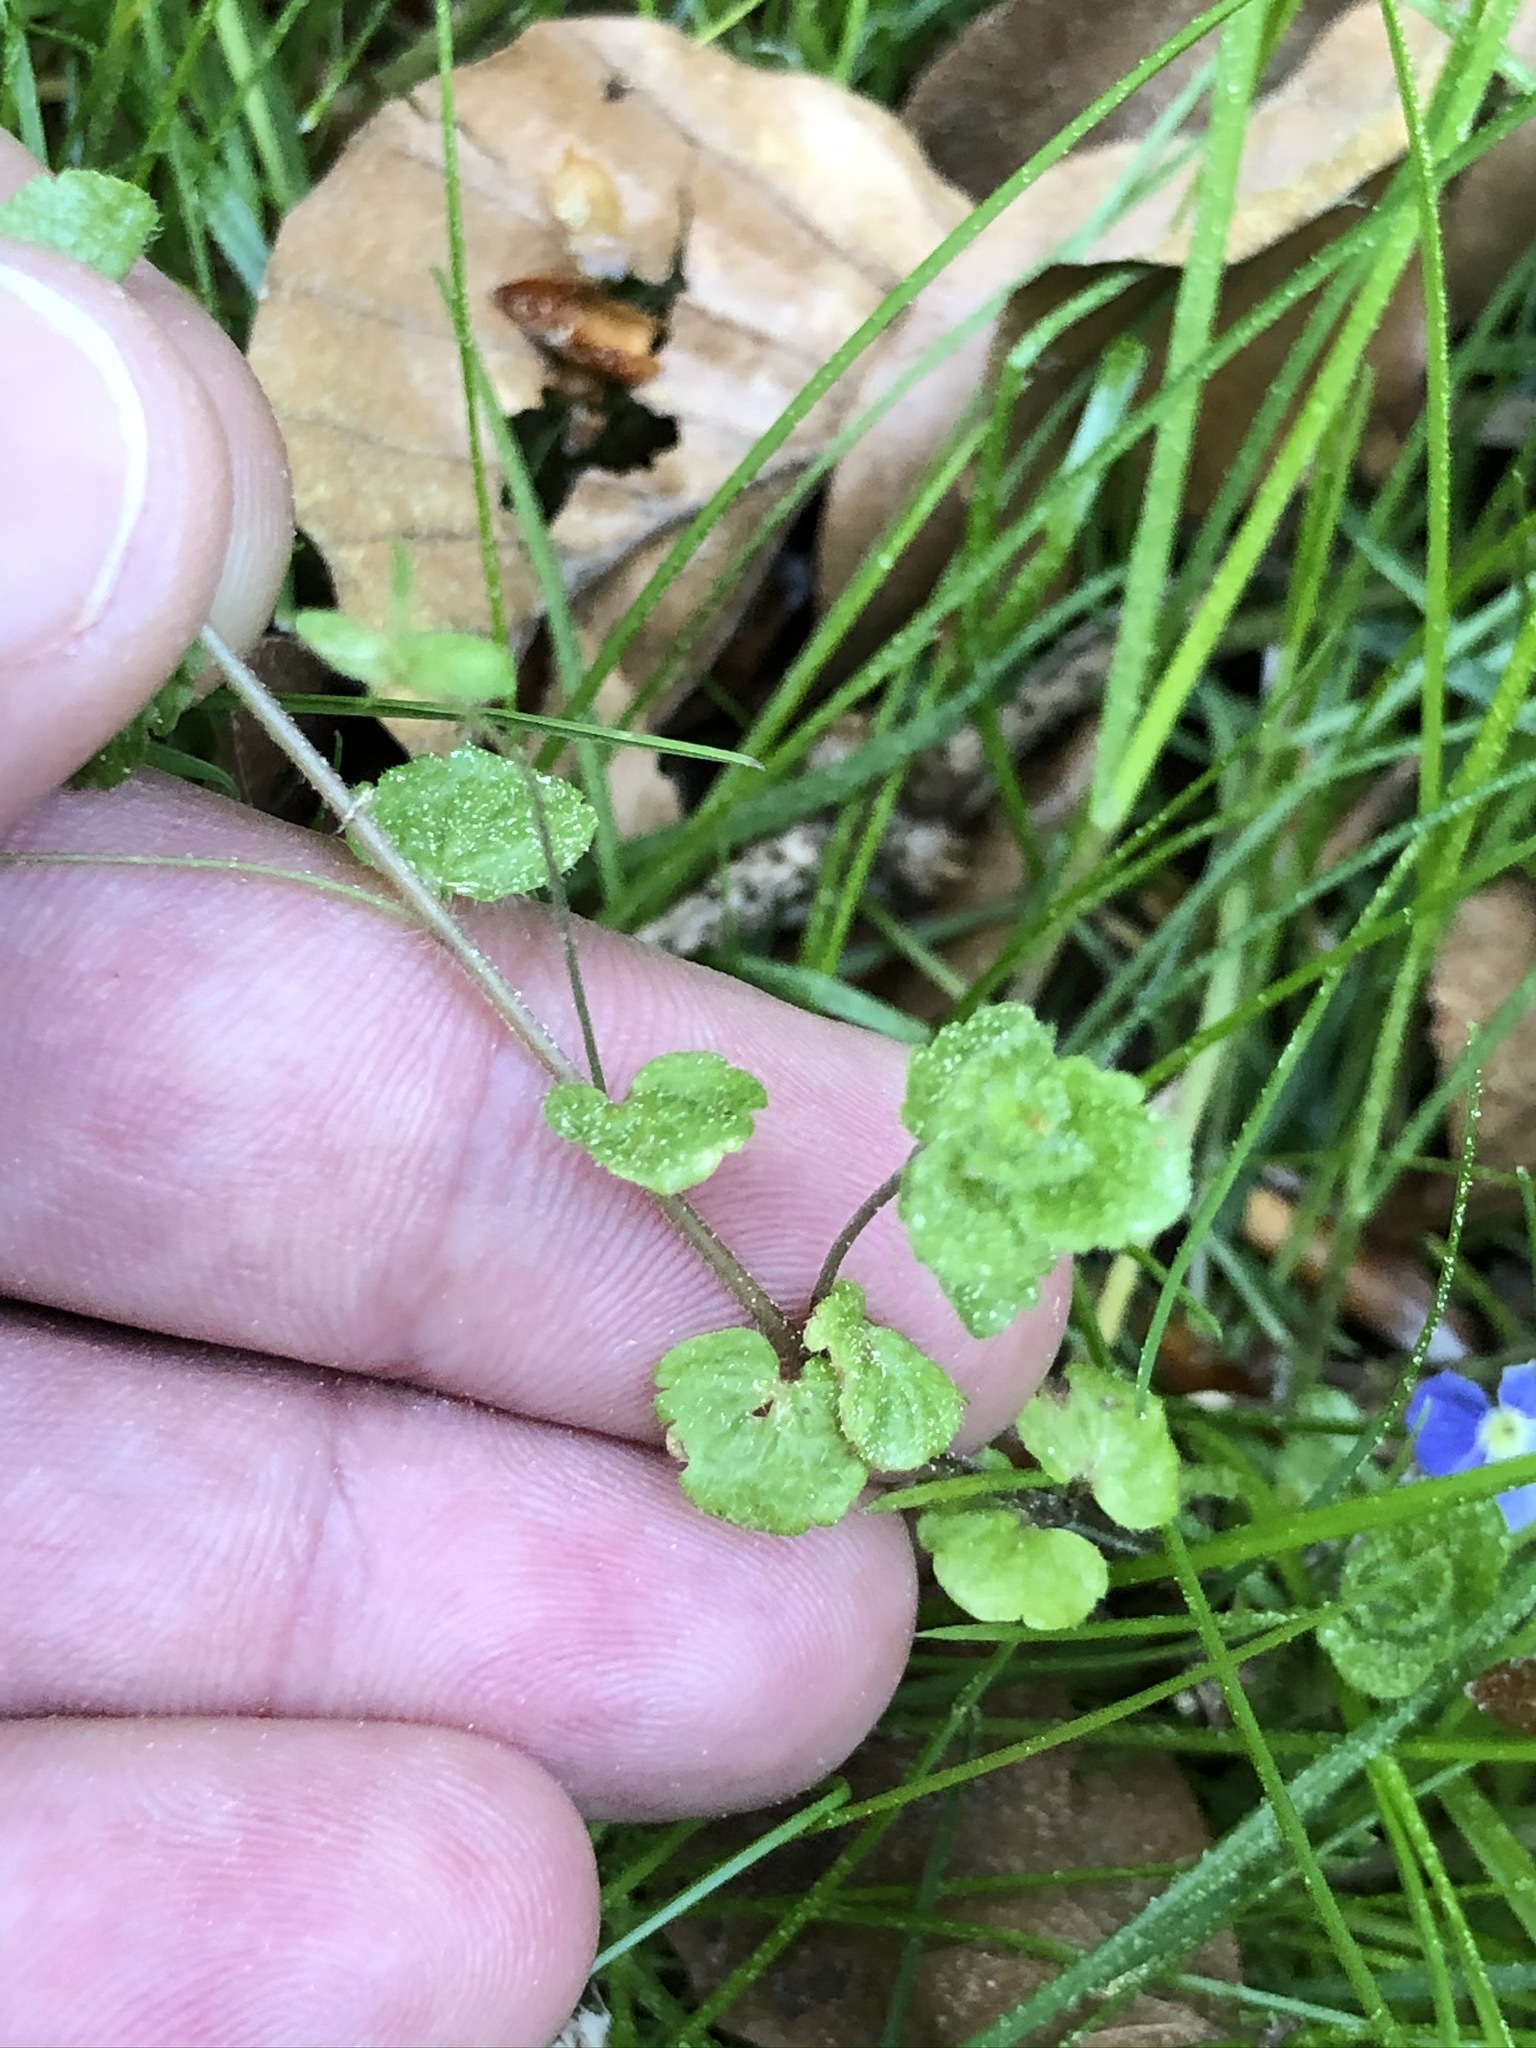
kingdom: Plantae
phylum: Tracheophyta
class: Magnoliopsida
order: Lamiales
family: Plantaginaceae
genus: Veronica
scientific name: Veronica filiformis
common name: Slender speedwell
